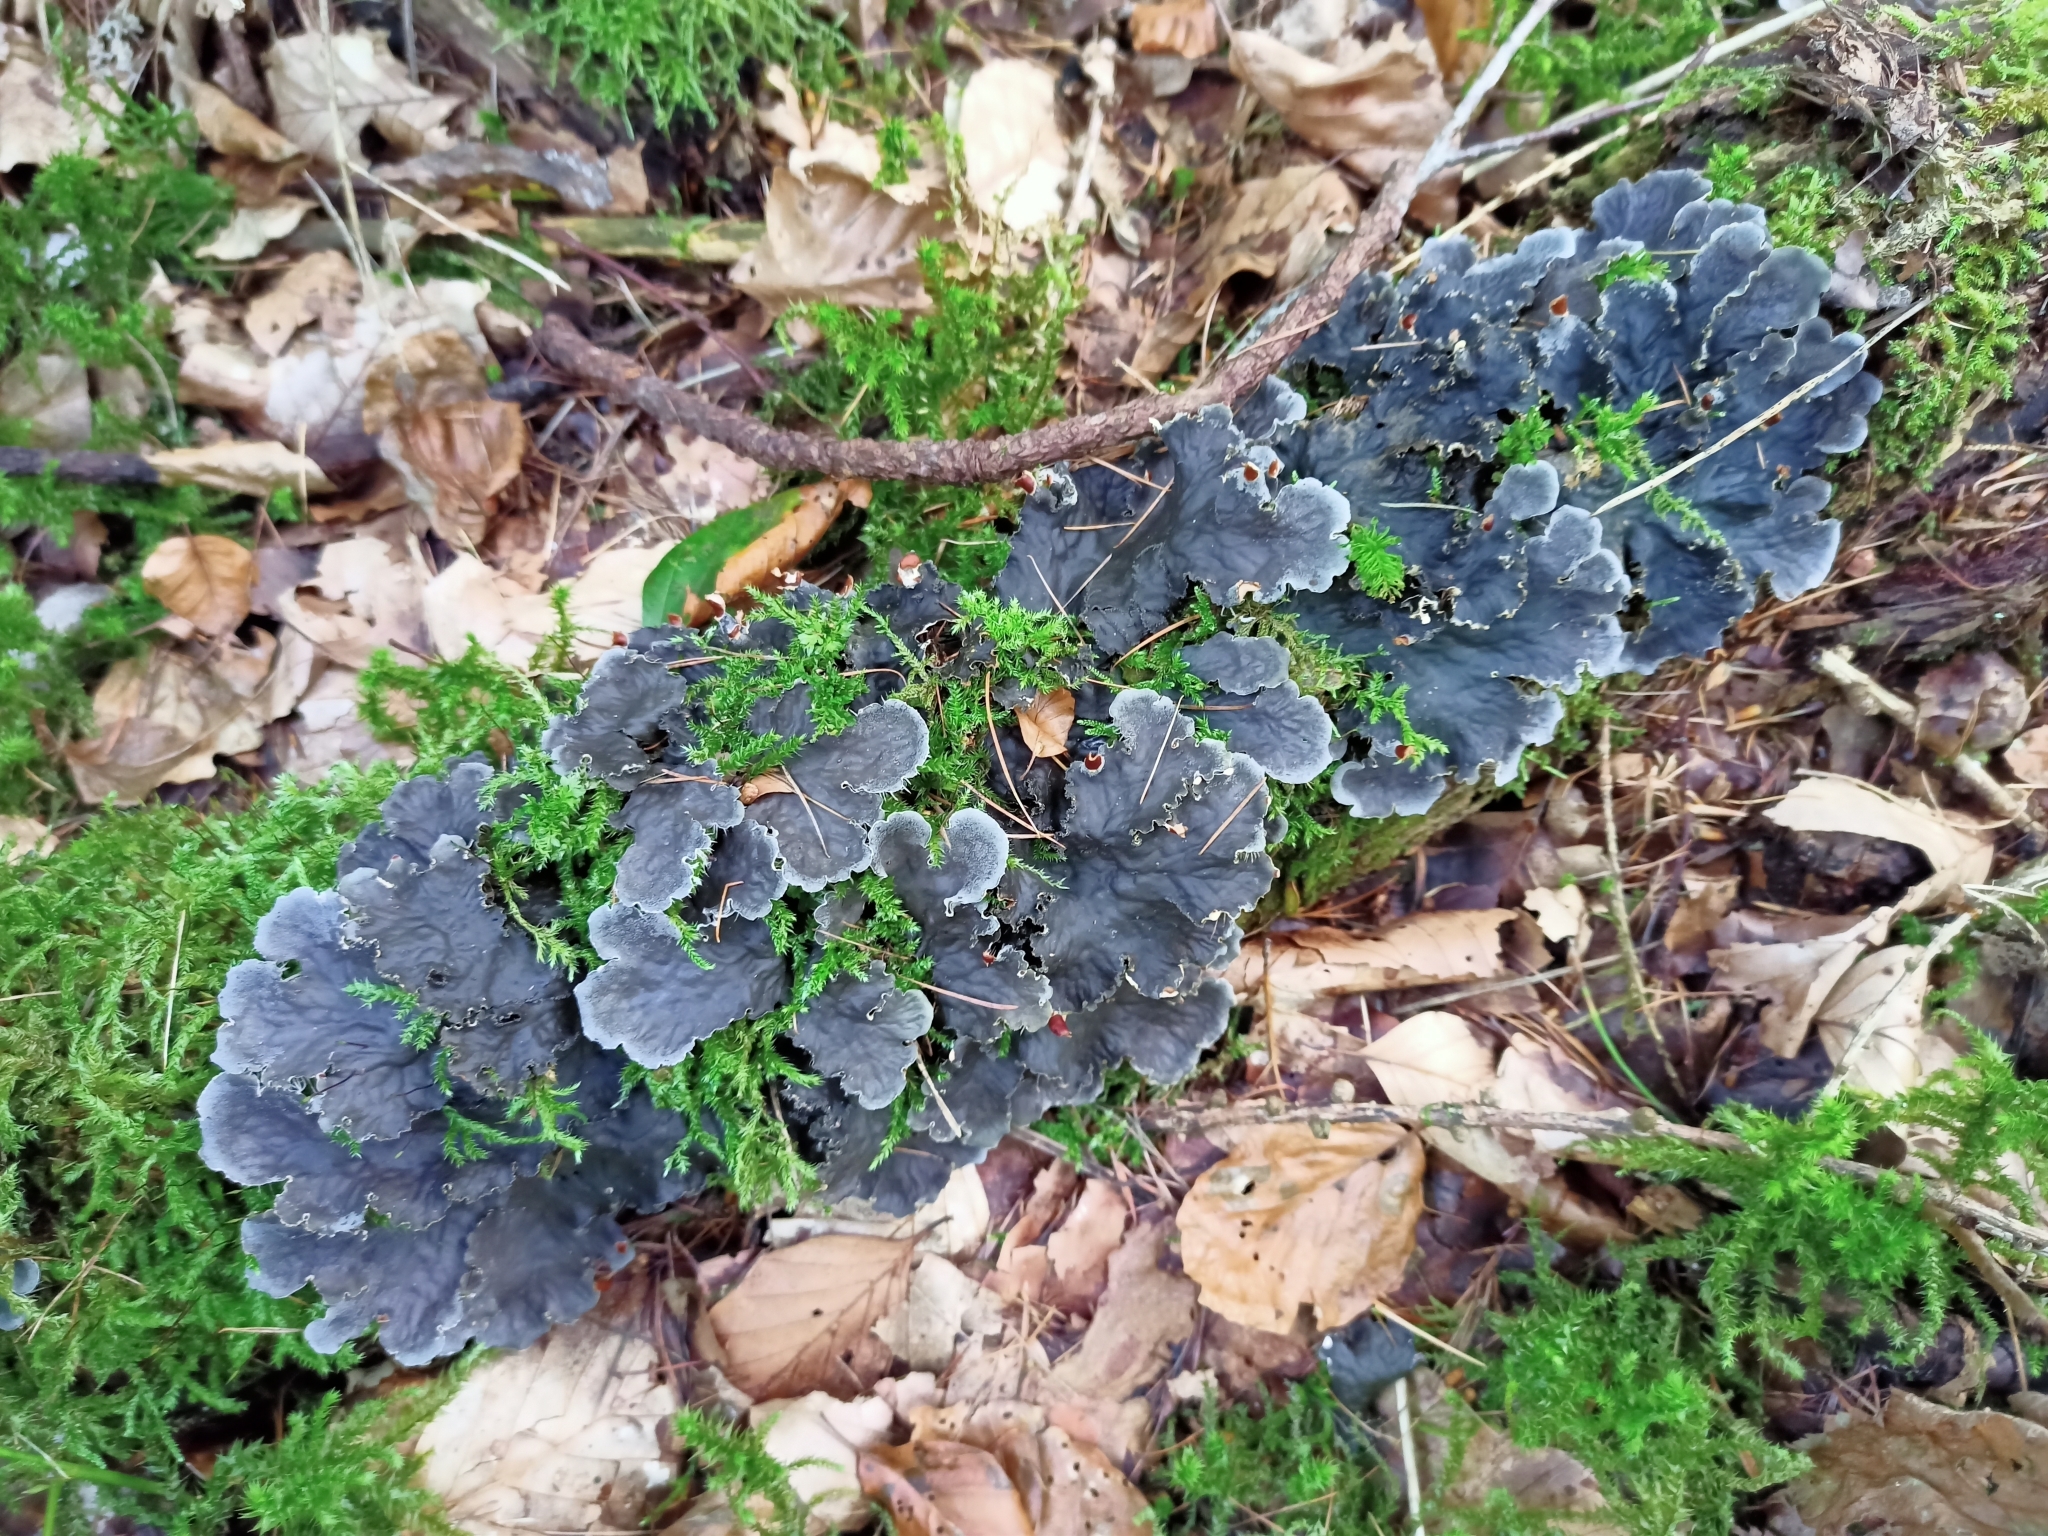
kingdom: Fungi
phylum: Ascomycota
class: Lecanoromycetes
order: Peltigerales
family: Peltigeraceae
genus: Peltigera
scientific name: Peltigera praetextata
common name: Scaly dog-lichen
